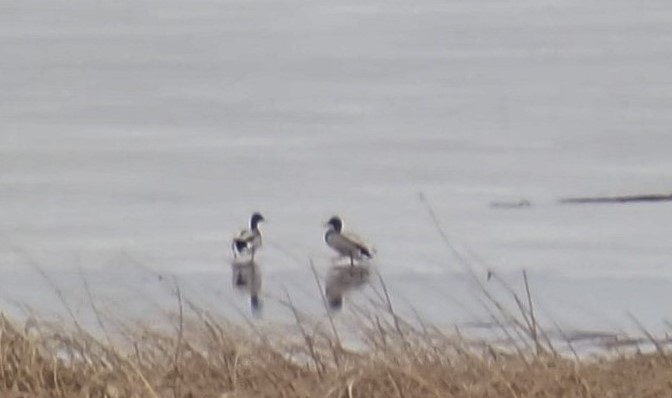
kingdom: Animalia
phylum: Chordata
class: Aves
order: Anseriformes
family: Anatidae
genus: Anas
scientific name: Anas platyrhynchos
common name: Mallard
